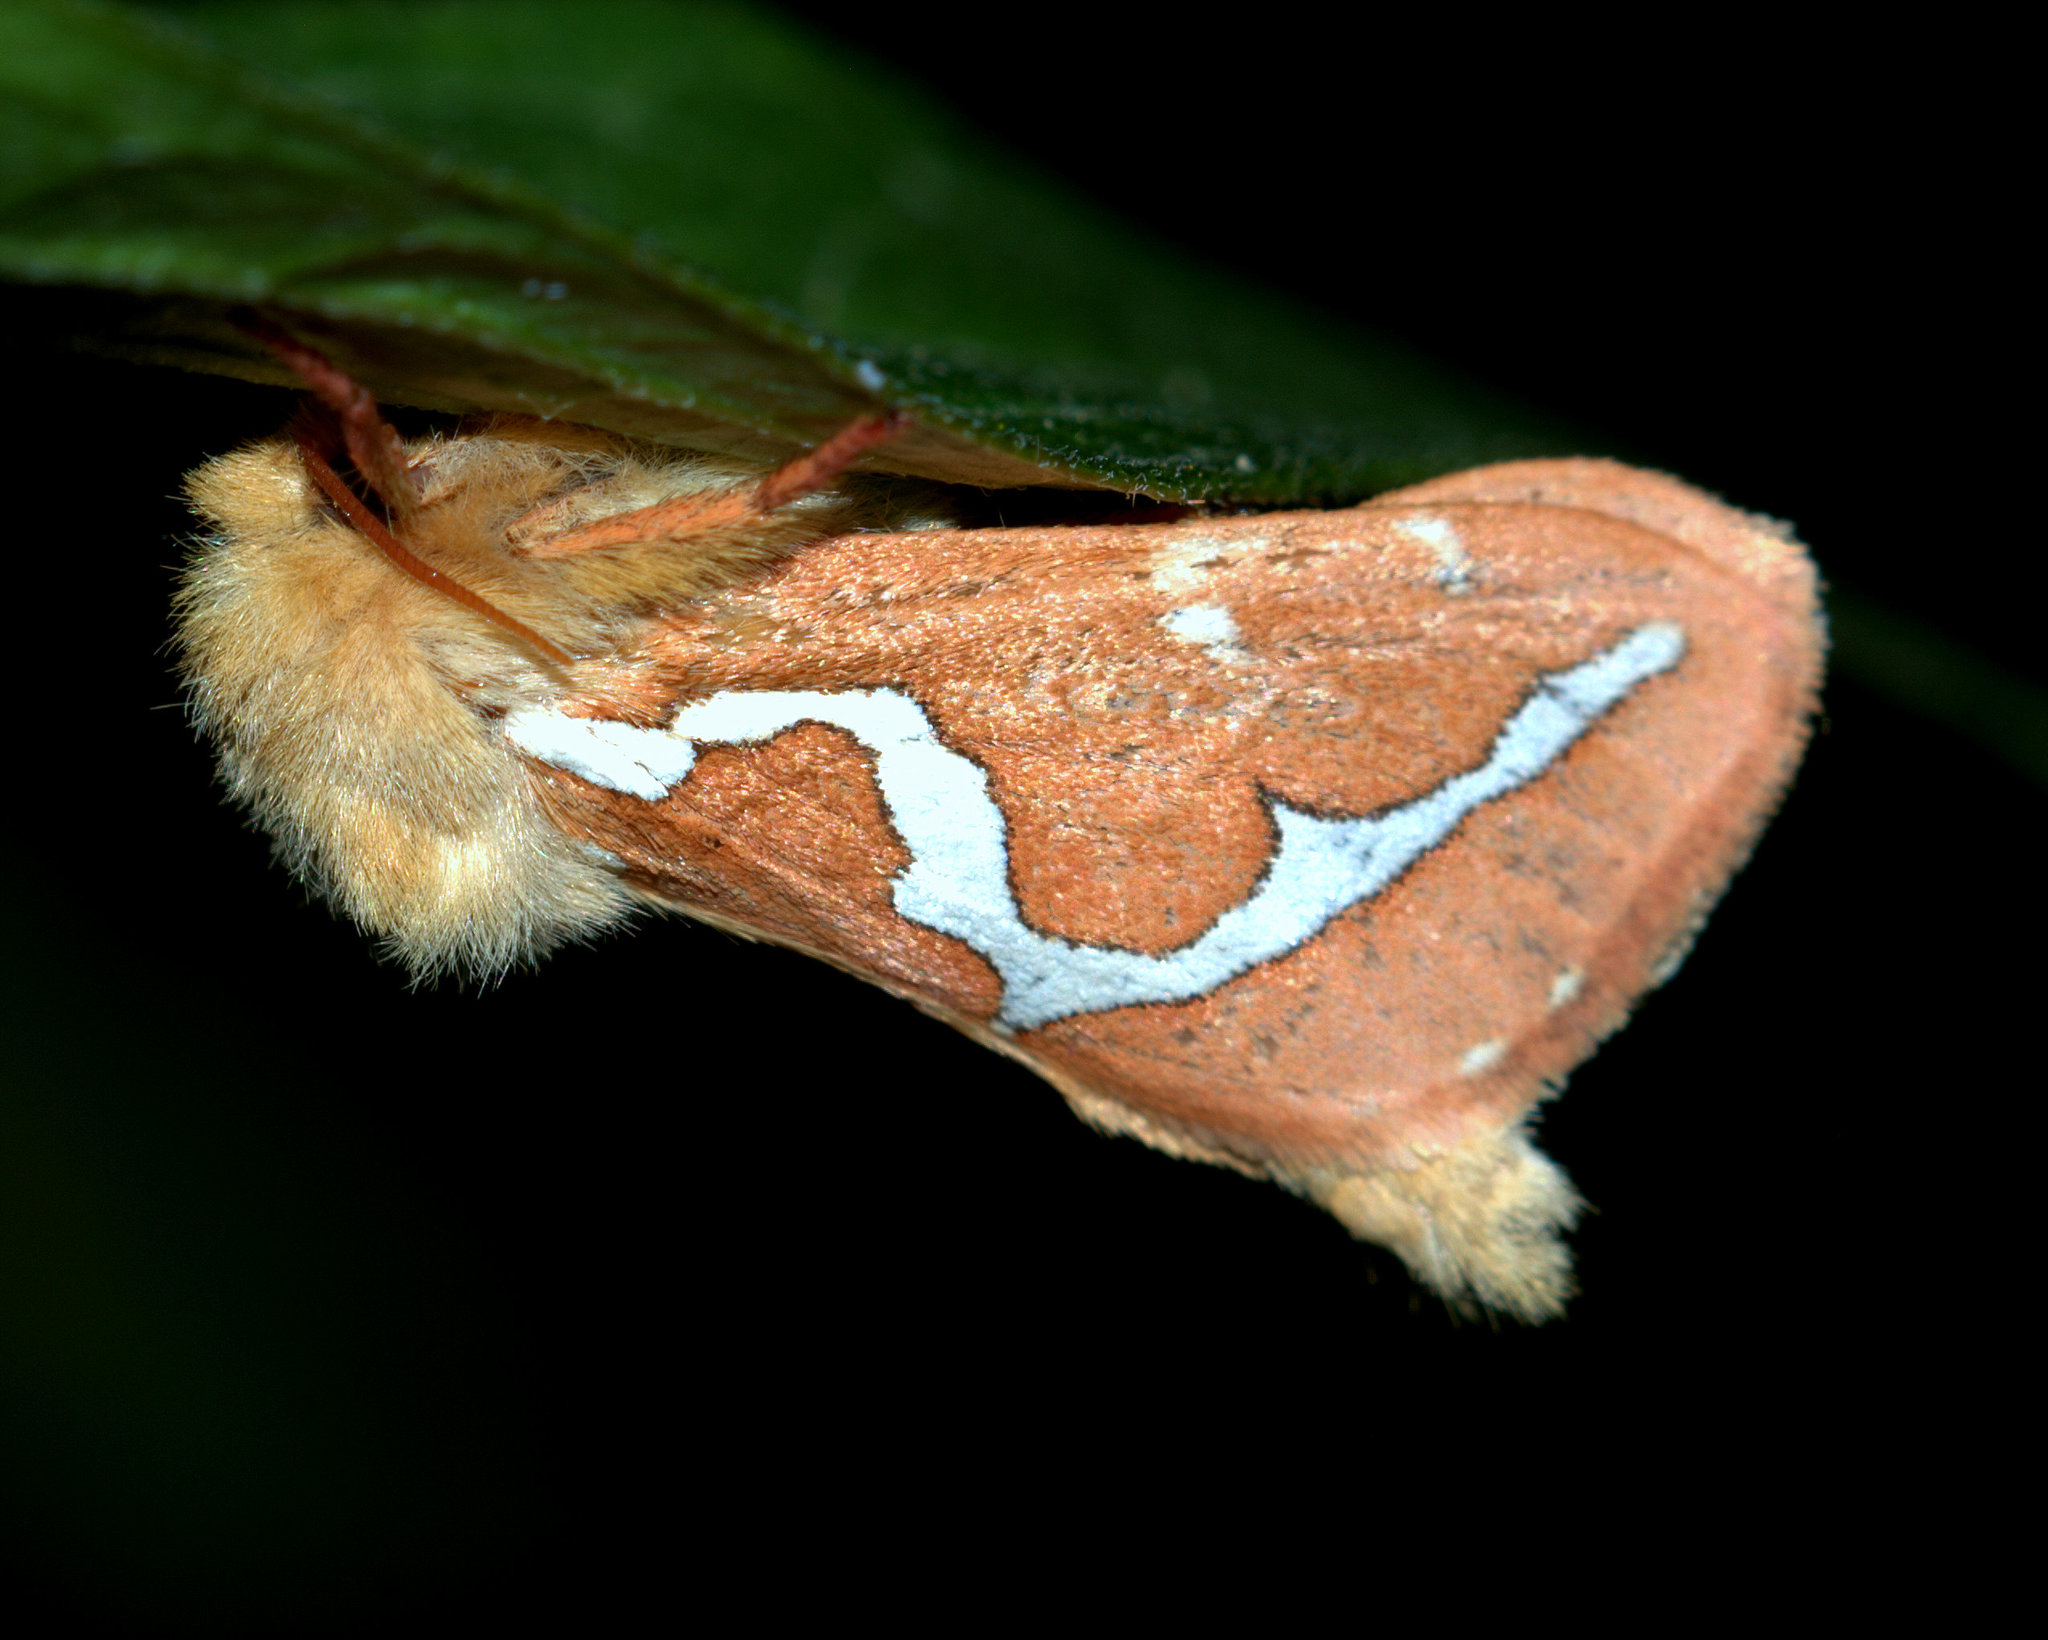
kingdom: Animalia
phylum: Arthropoda
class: Insecta
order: Lepidoptera
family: Hepialidae
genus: Gazoryctra
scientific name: Gazoryctra novigannus
